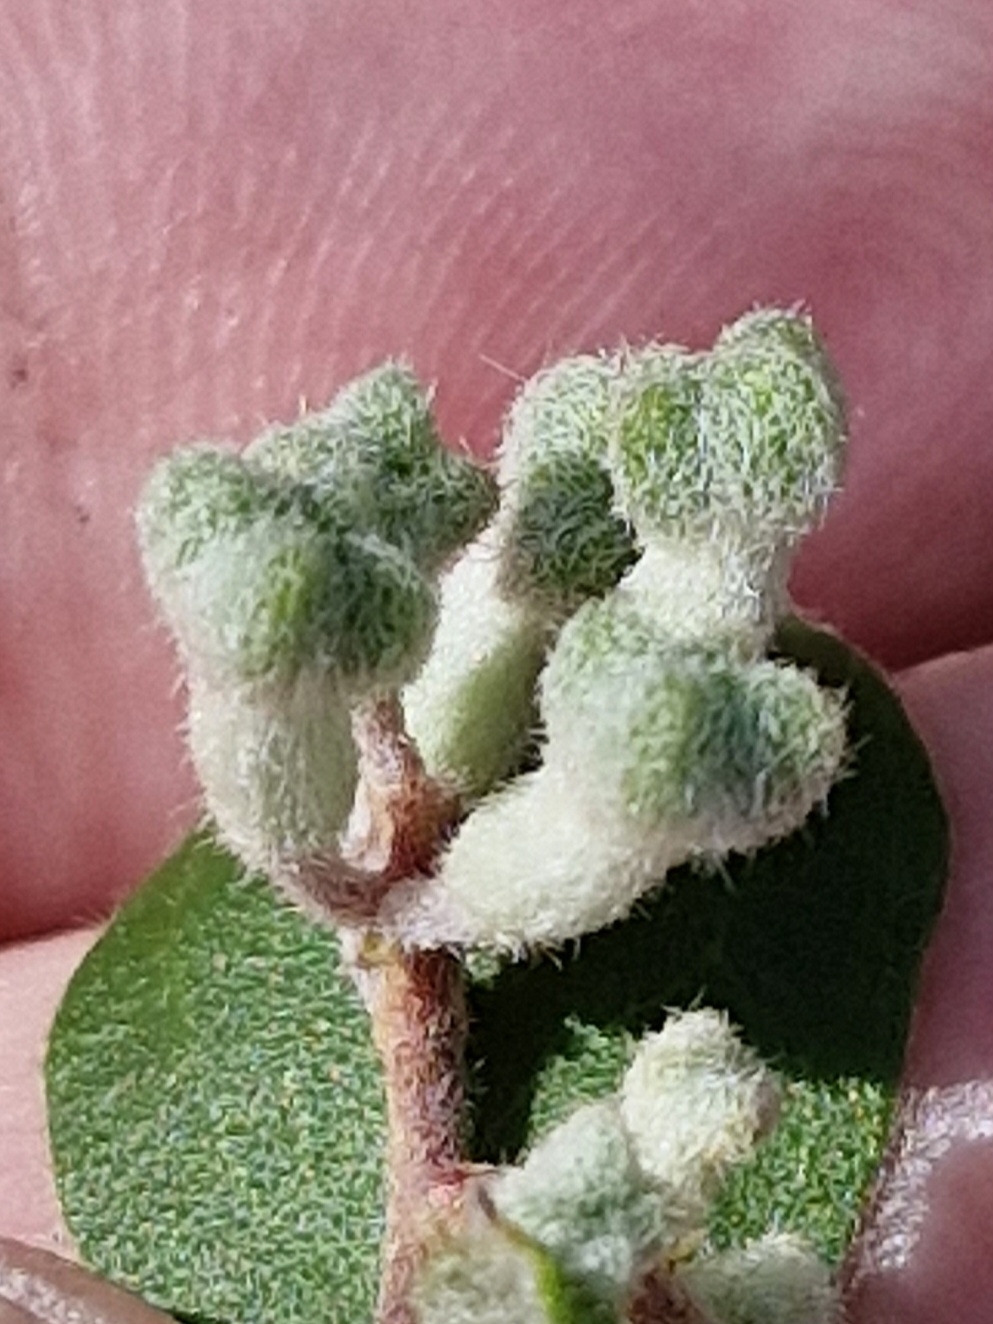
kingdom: Plantae
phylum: Tracheophyta
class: Magnoliopsida
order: Proteales
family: Proteaceae
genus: Grevillea
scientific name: Grevillea mucronulata
